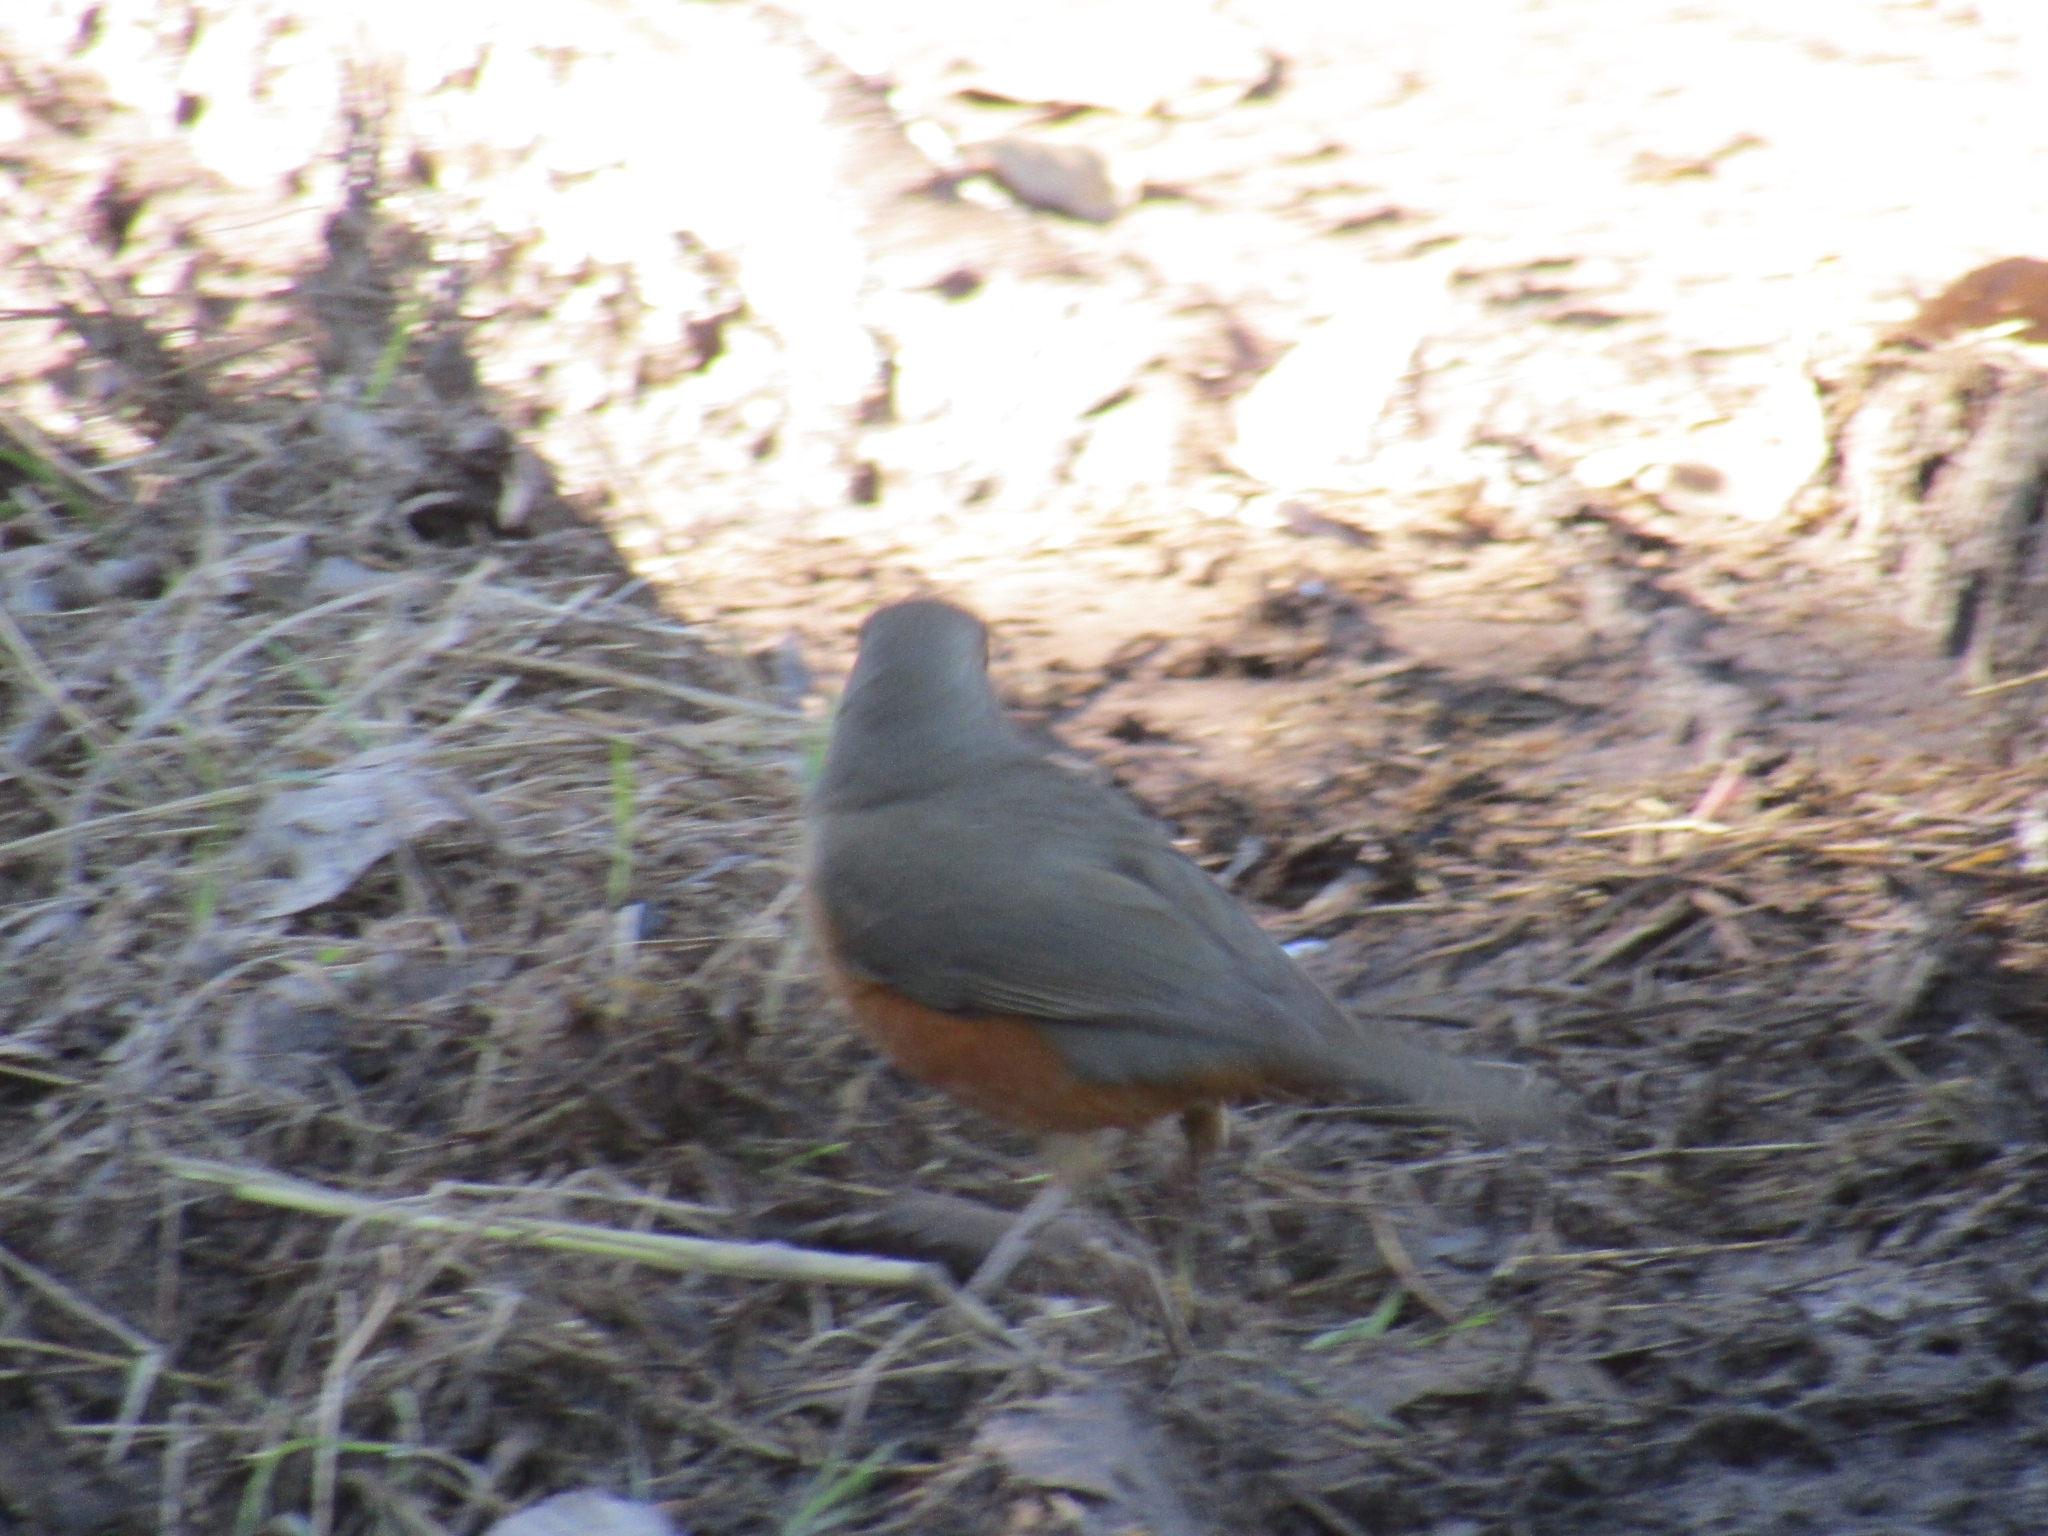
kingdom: Animalia
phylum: Chordata
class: Aves
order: Passeriformes
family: Turdidae
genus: Turdus
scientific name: Turdus rufiventris
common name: Rufous-bellied thrush
